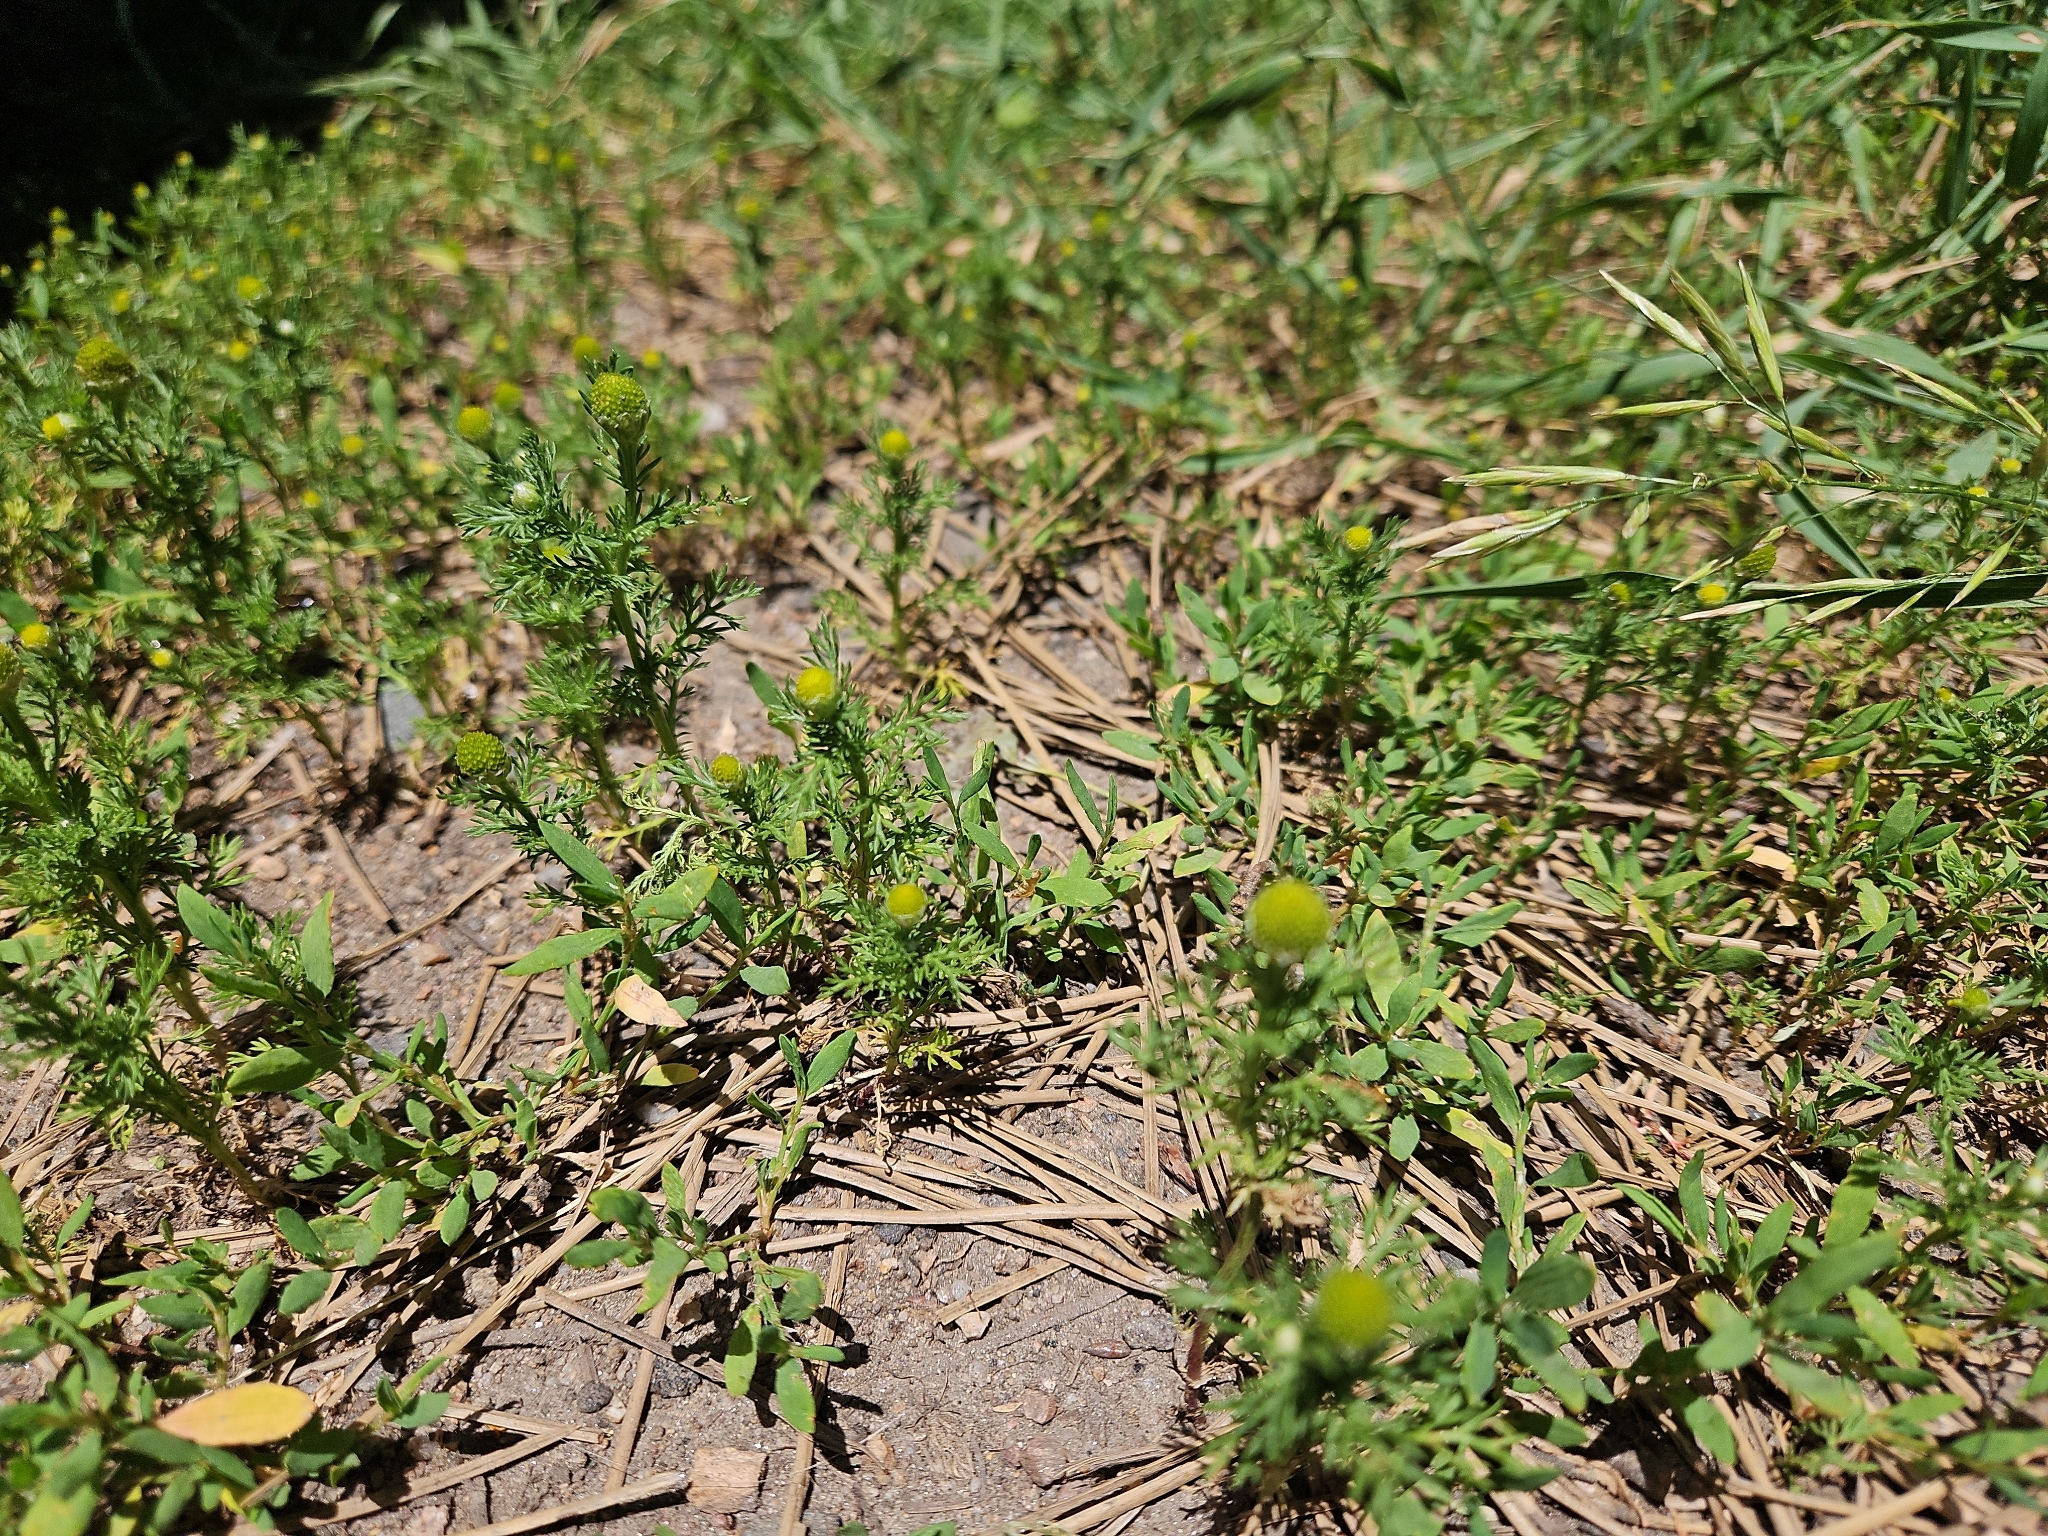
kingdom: Plantae
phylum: Tracheophyta
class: Magnoliopsida
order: Asterales
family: Asteraceae
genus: Matricaria
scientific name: Matricaria discoidea
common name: Disc mayweed
